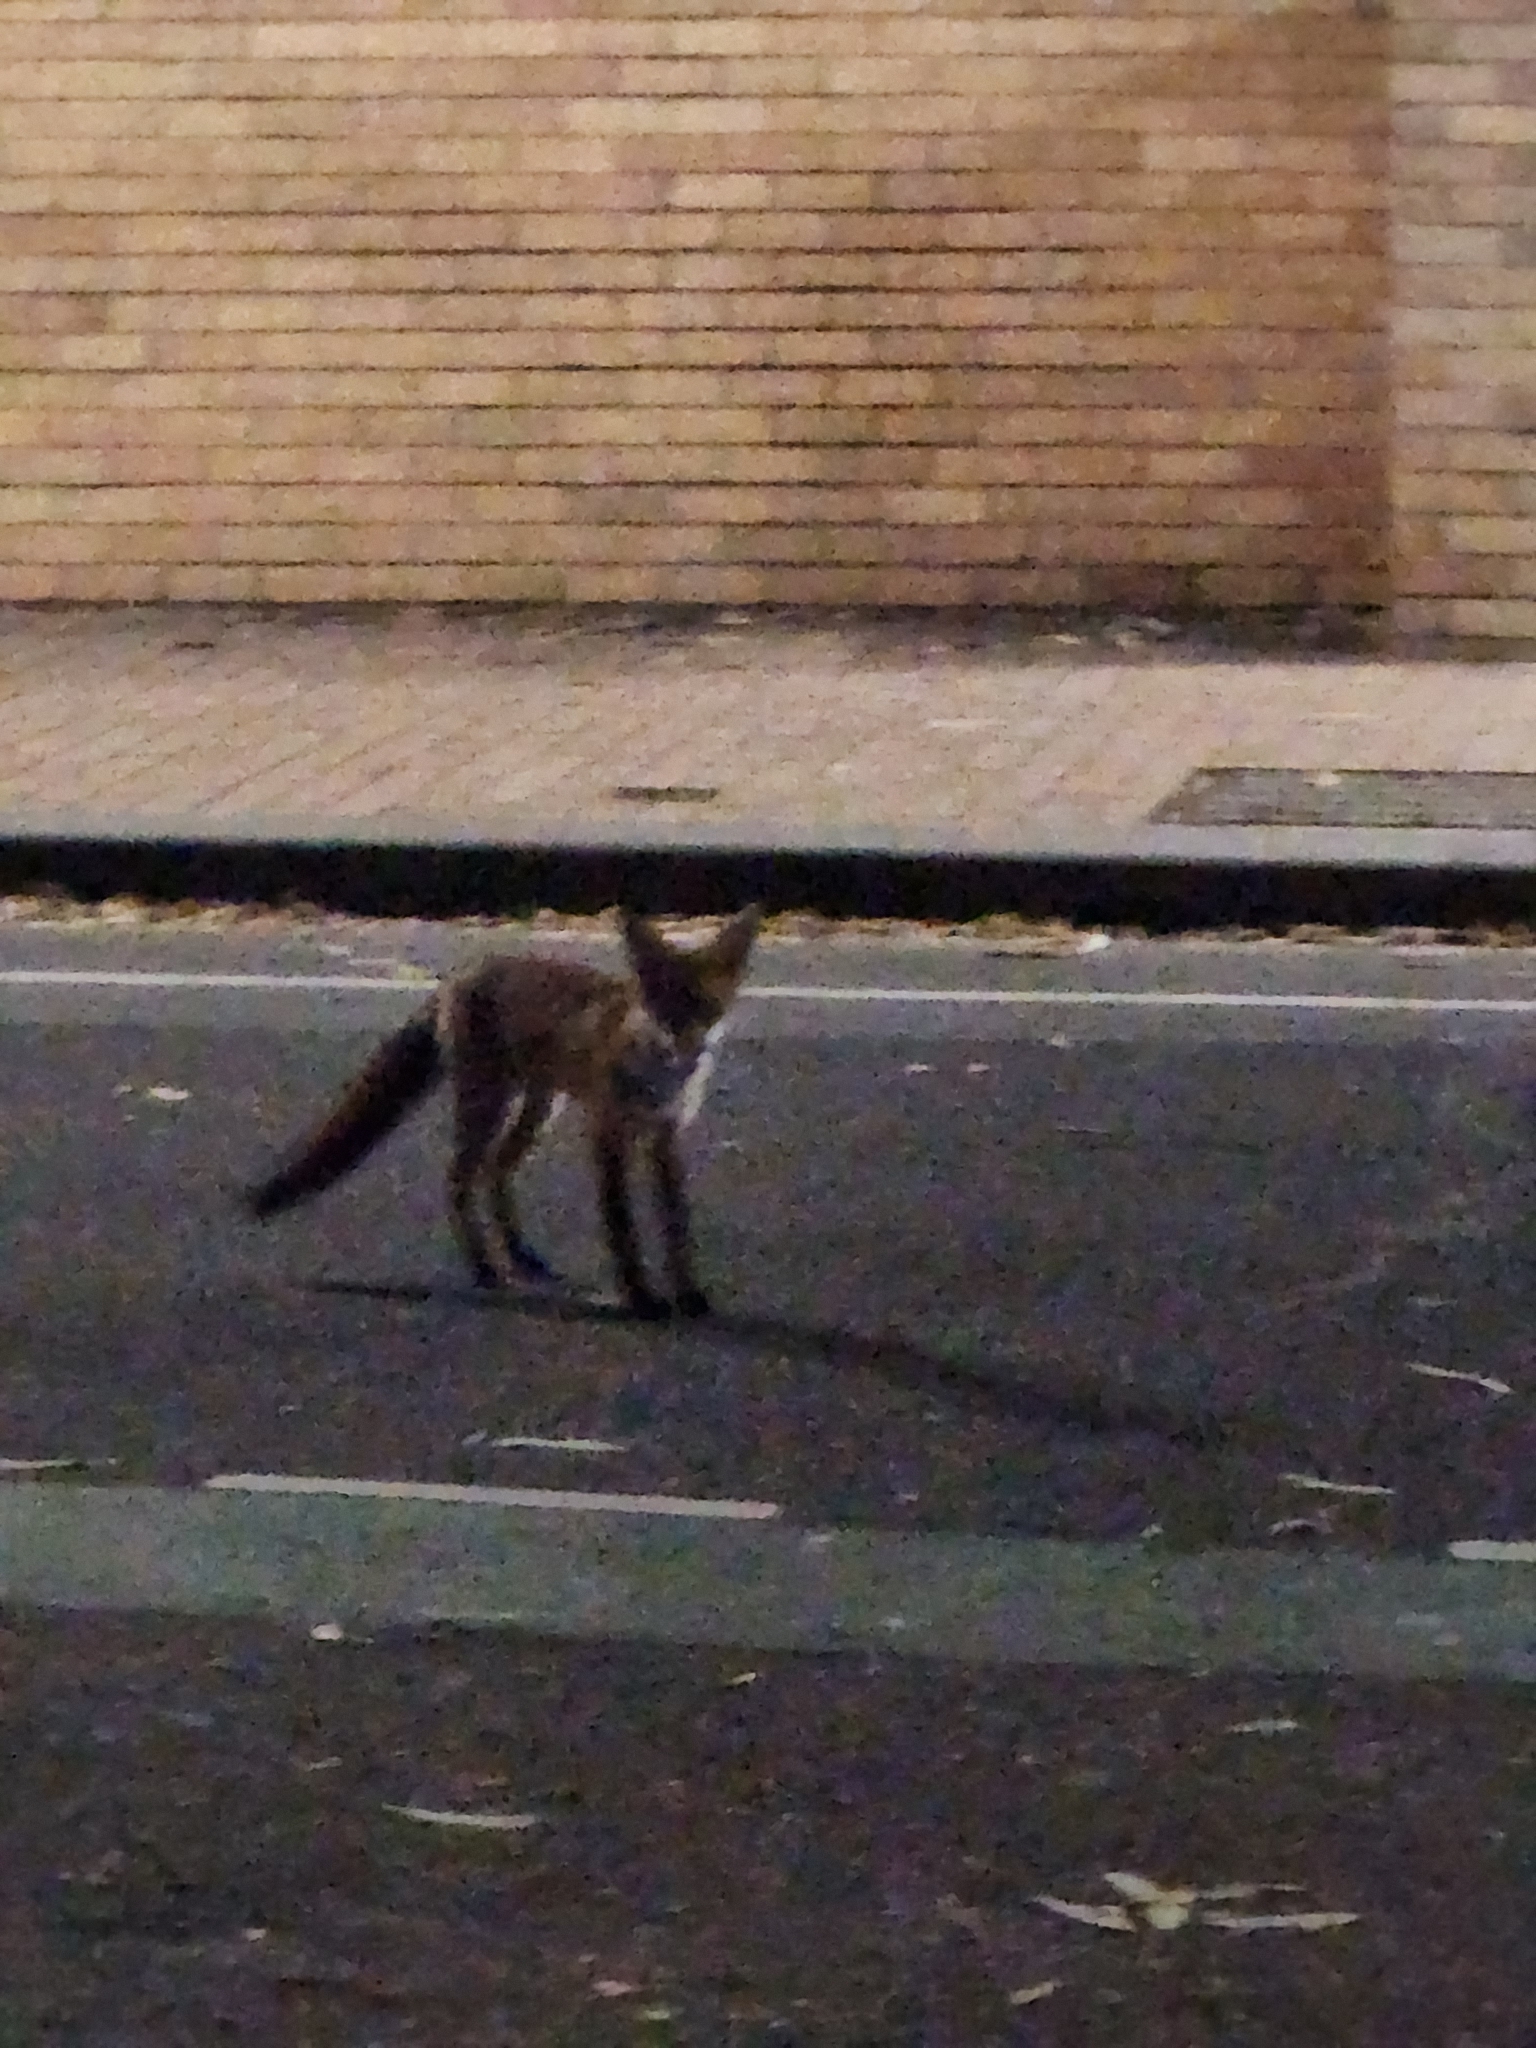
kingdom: Animalia
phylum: Chordata
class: Mammalia
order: Carnivora
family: Canidae
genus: Vulpes
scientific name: Vulpes vulpes
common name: Red fox
